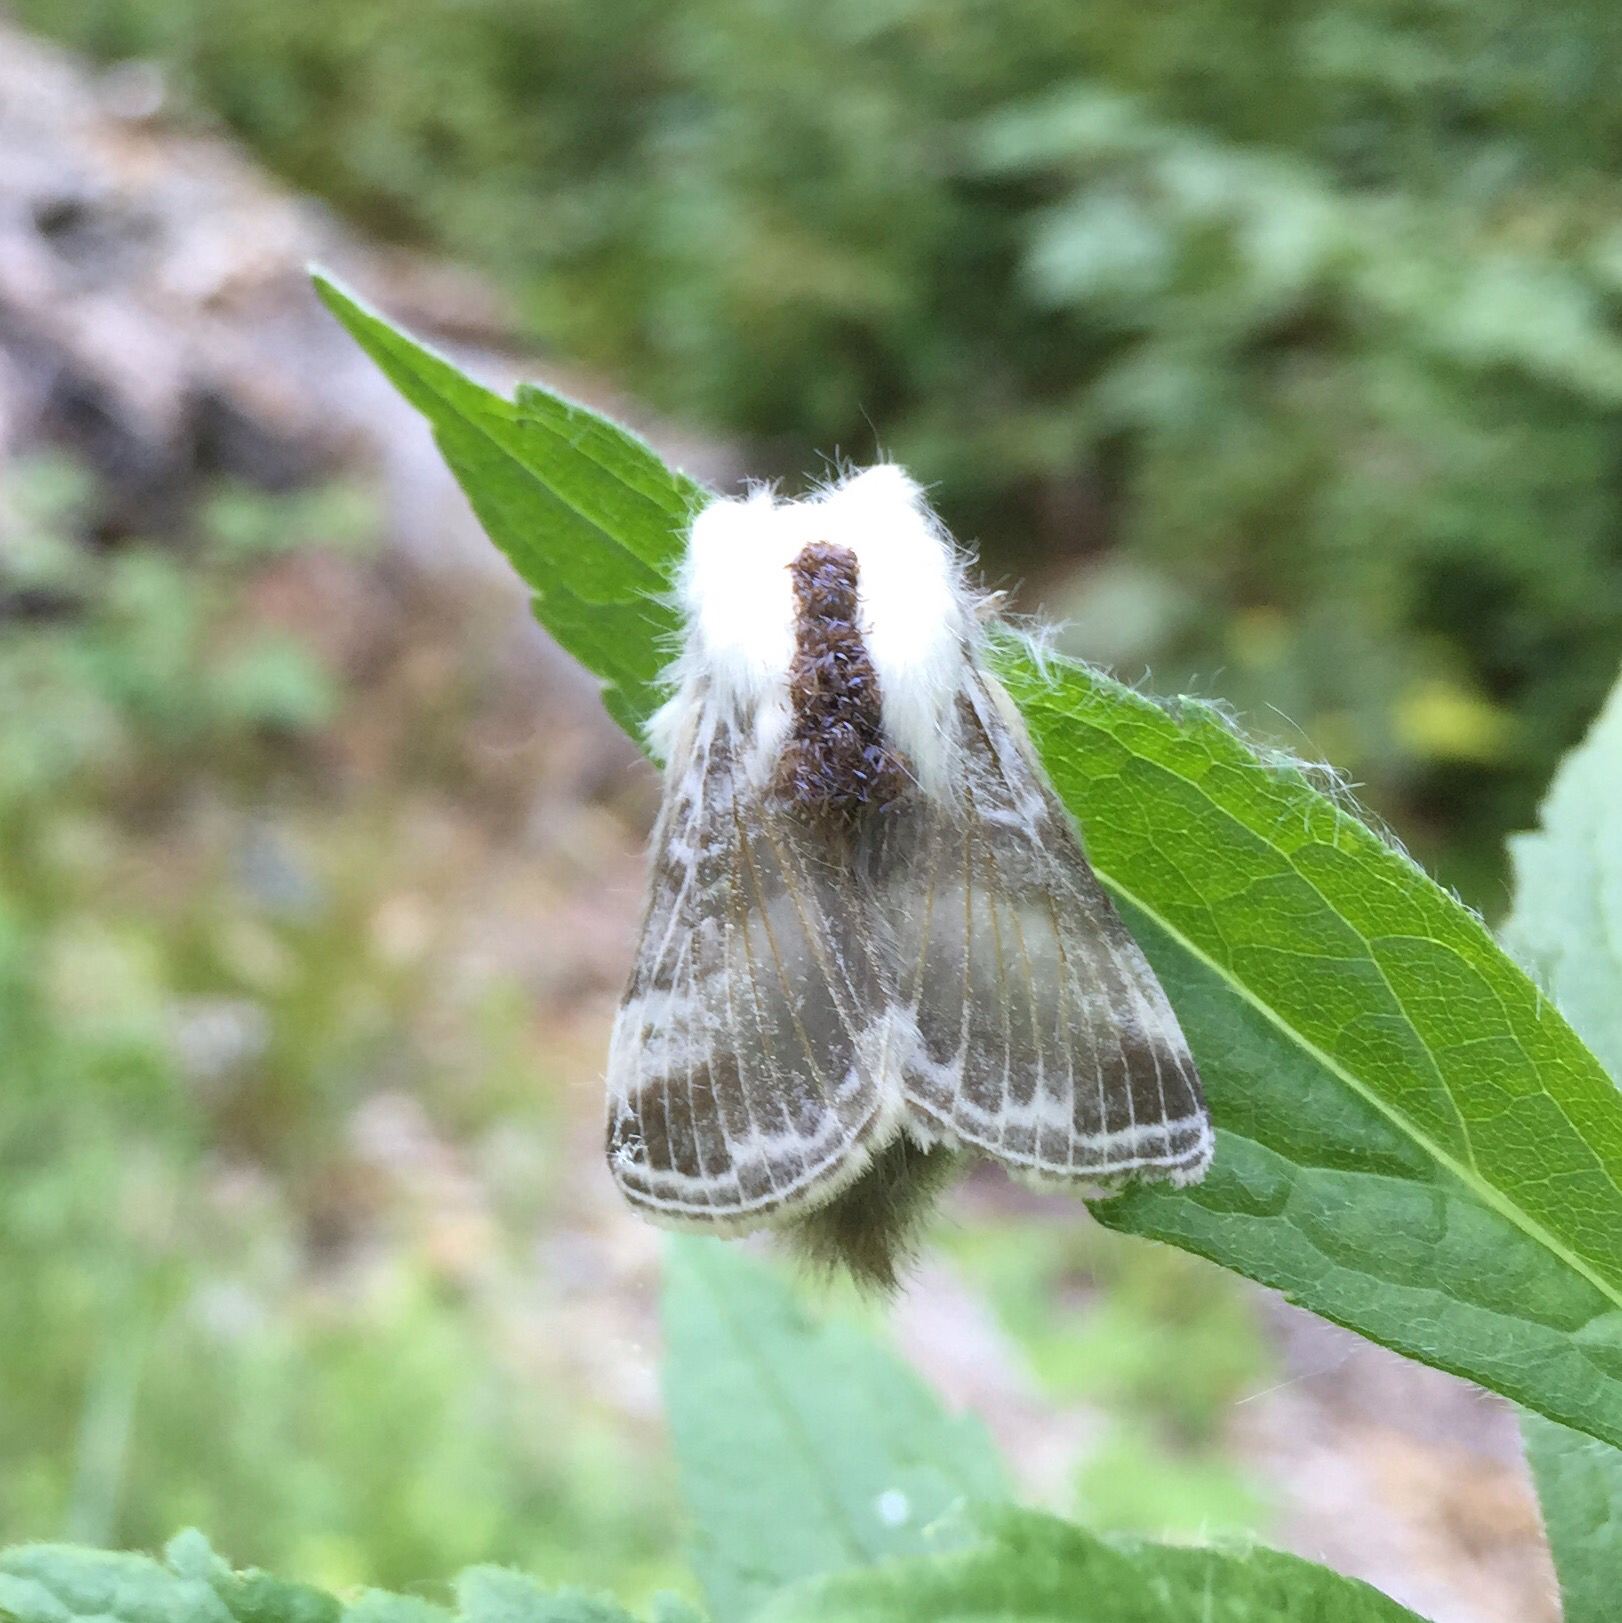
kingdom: Animalia
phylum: Arthropoda
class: Insecta
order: Lepidoptera
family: Lasiocampidae
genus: Tolype
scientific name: Tolype velleda
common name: Large tolype moth
